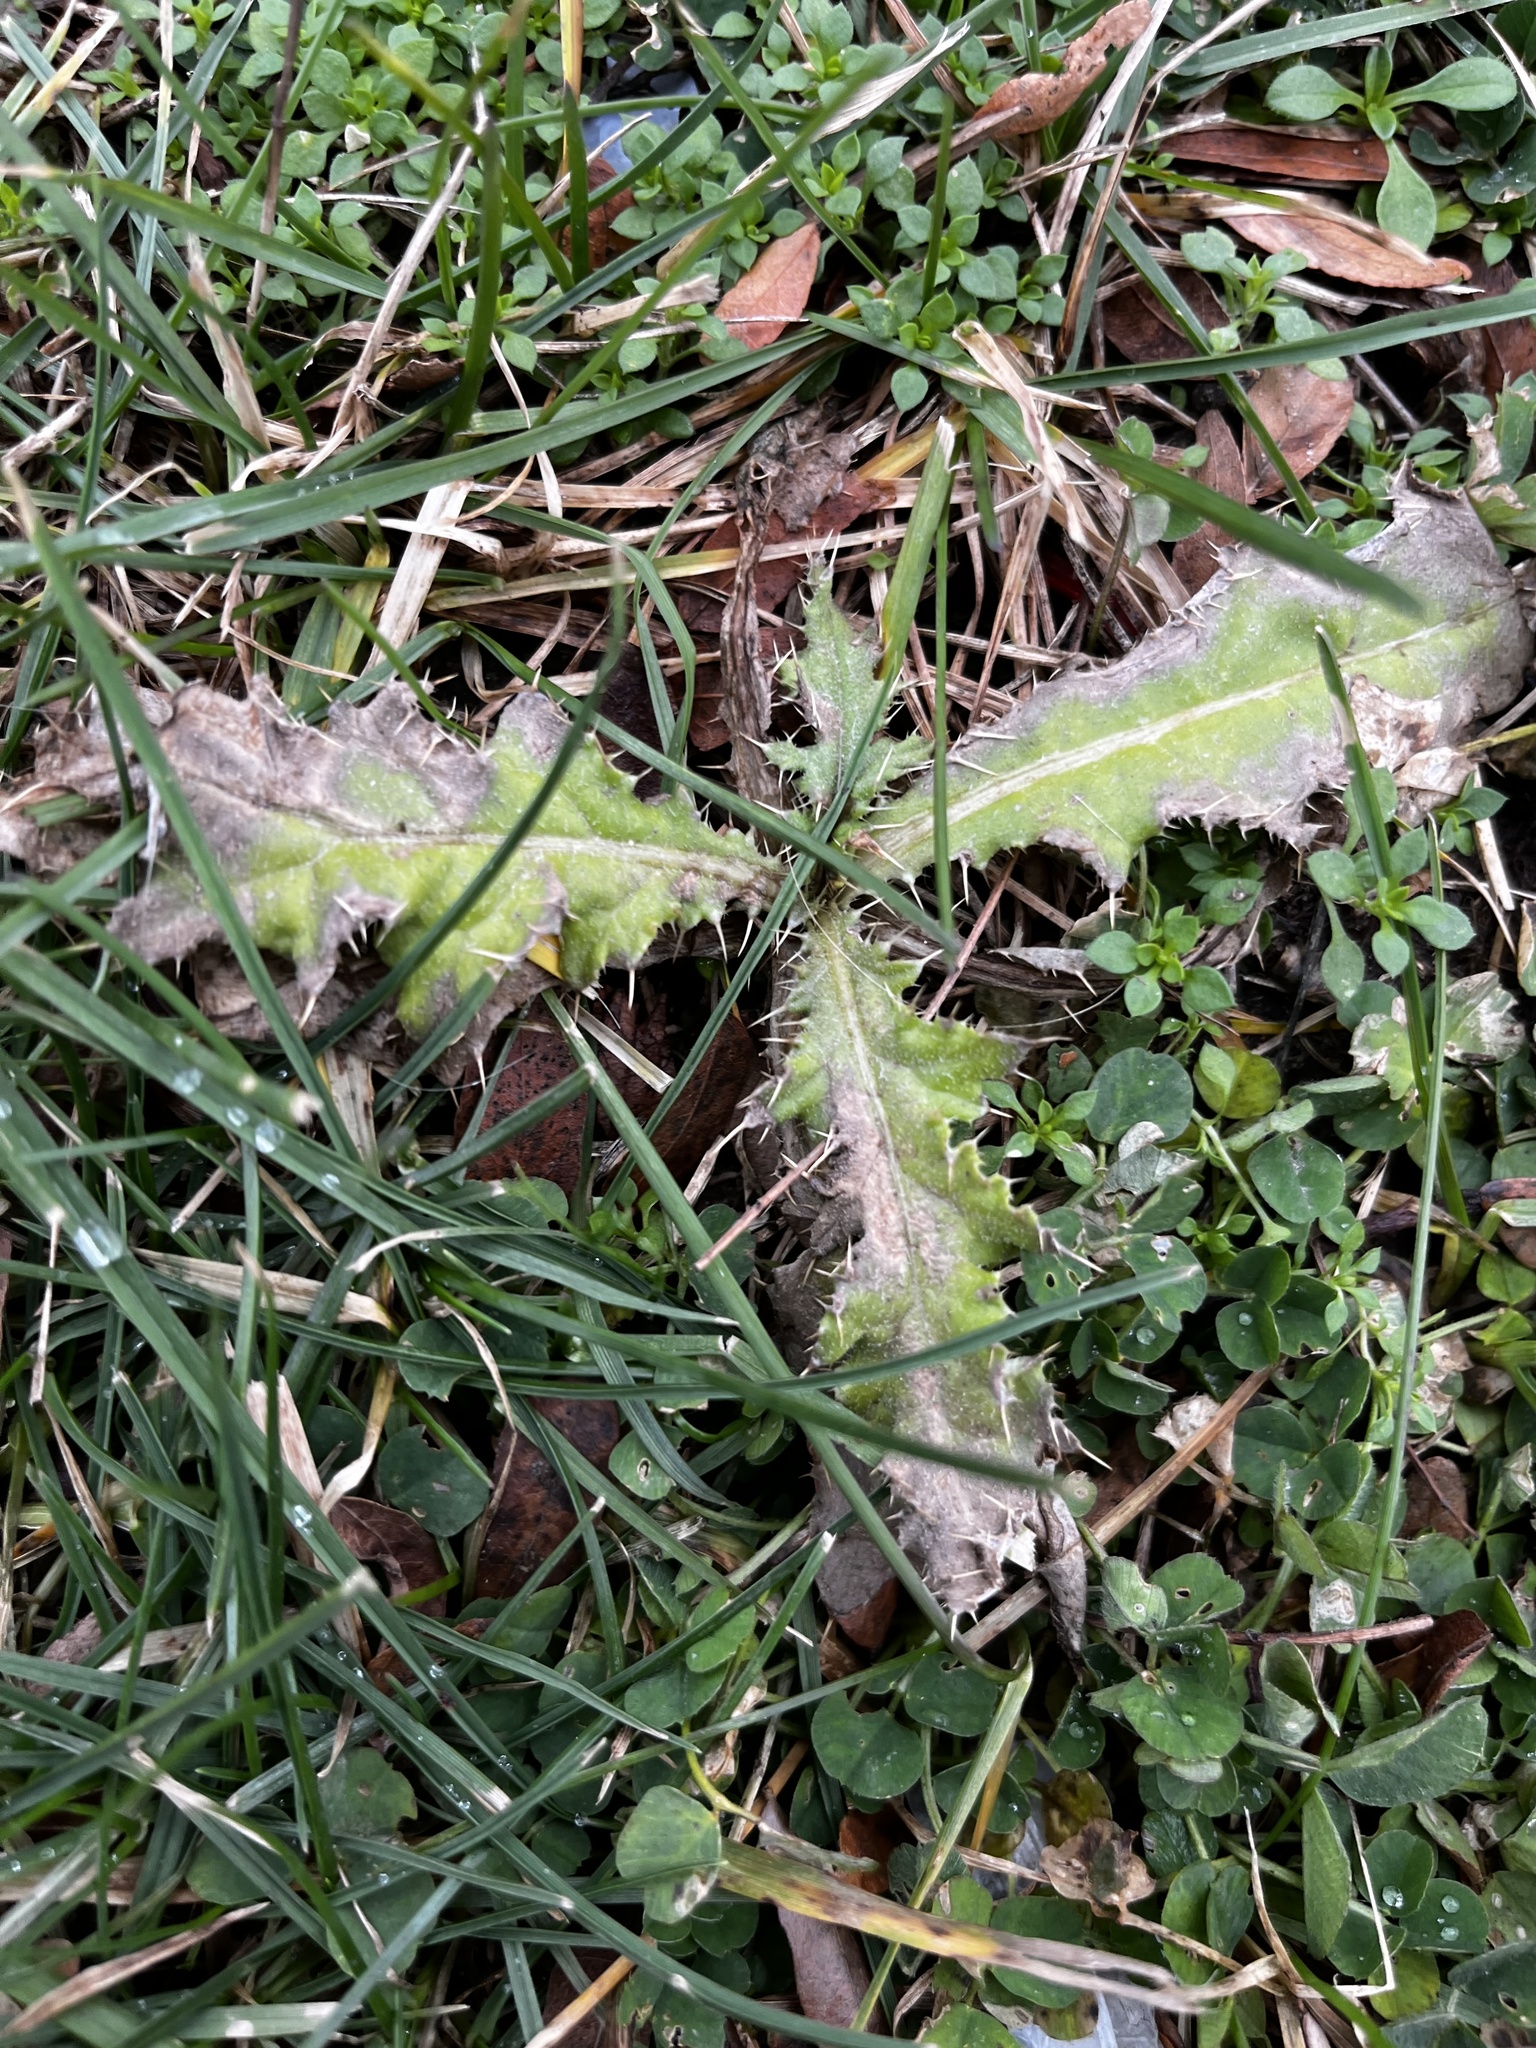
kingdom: Plantae
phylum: Tracheophyta
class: Magnoliopsida
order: Asterales
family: Asteraceae
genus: Cirsium
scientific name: Cirsium vulgare
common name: Bull thistle
